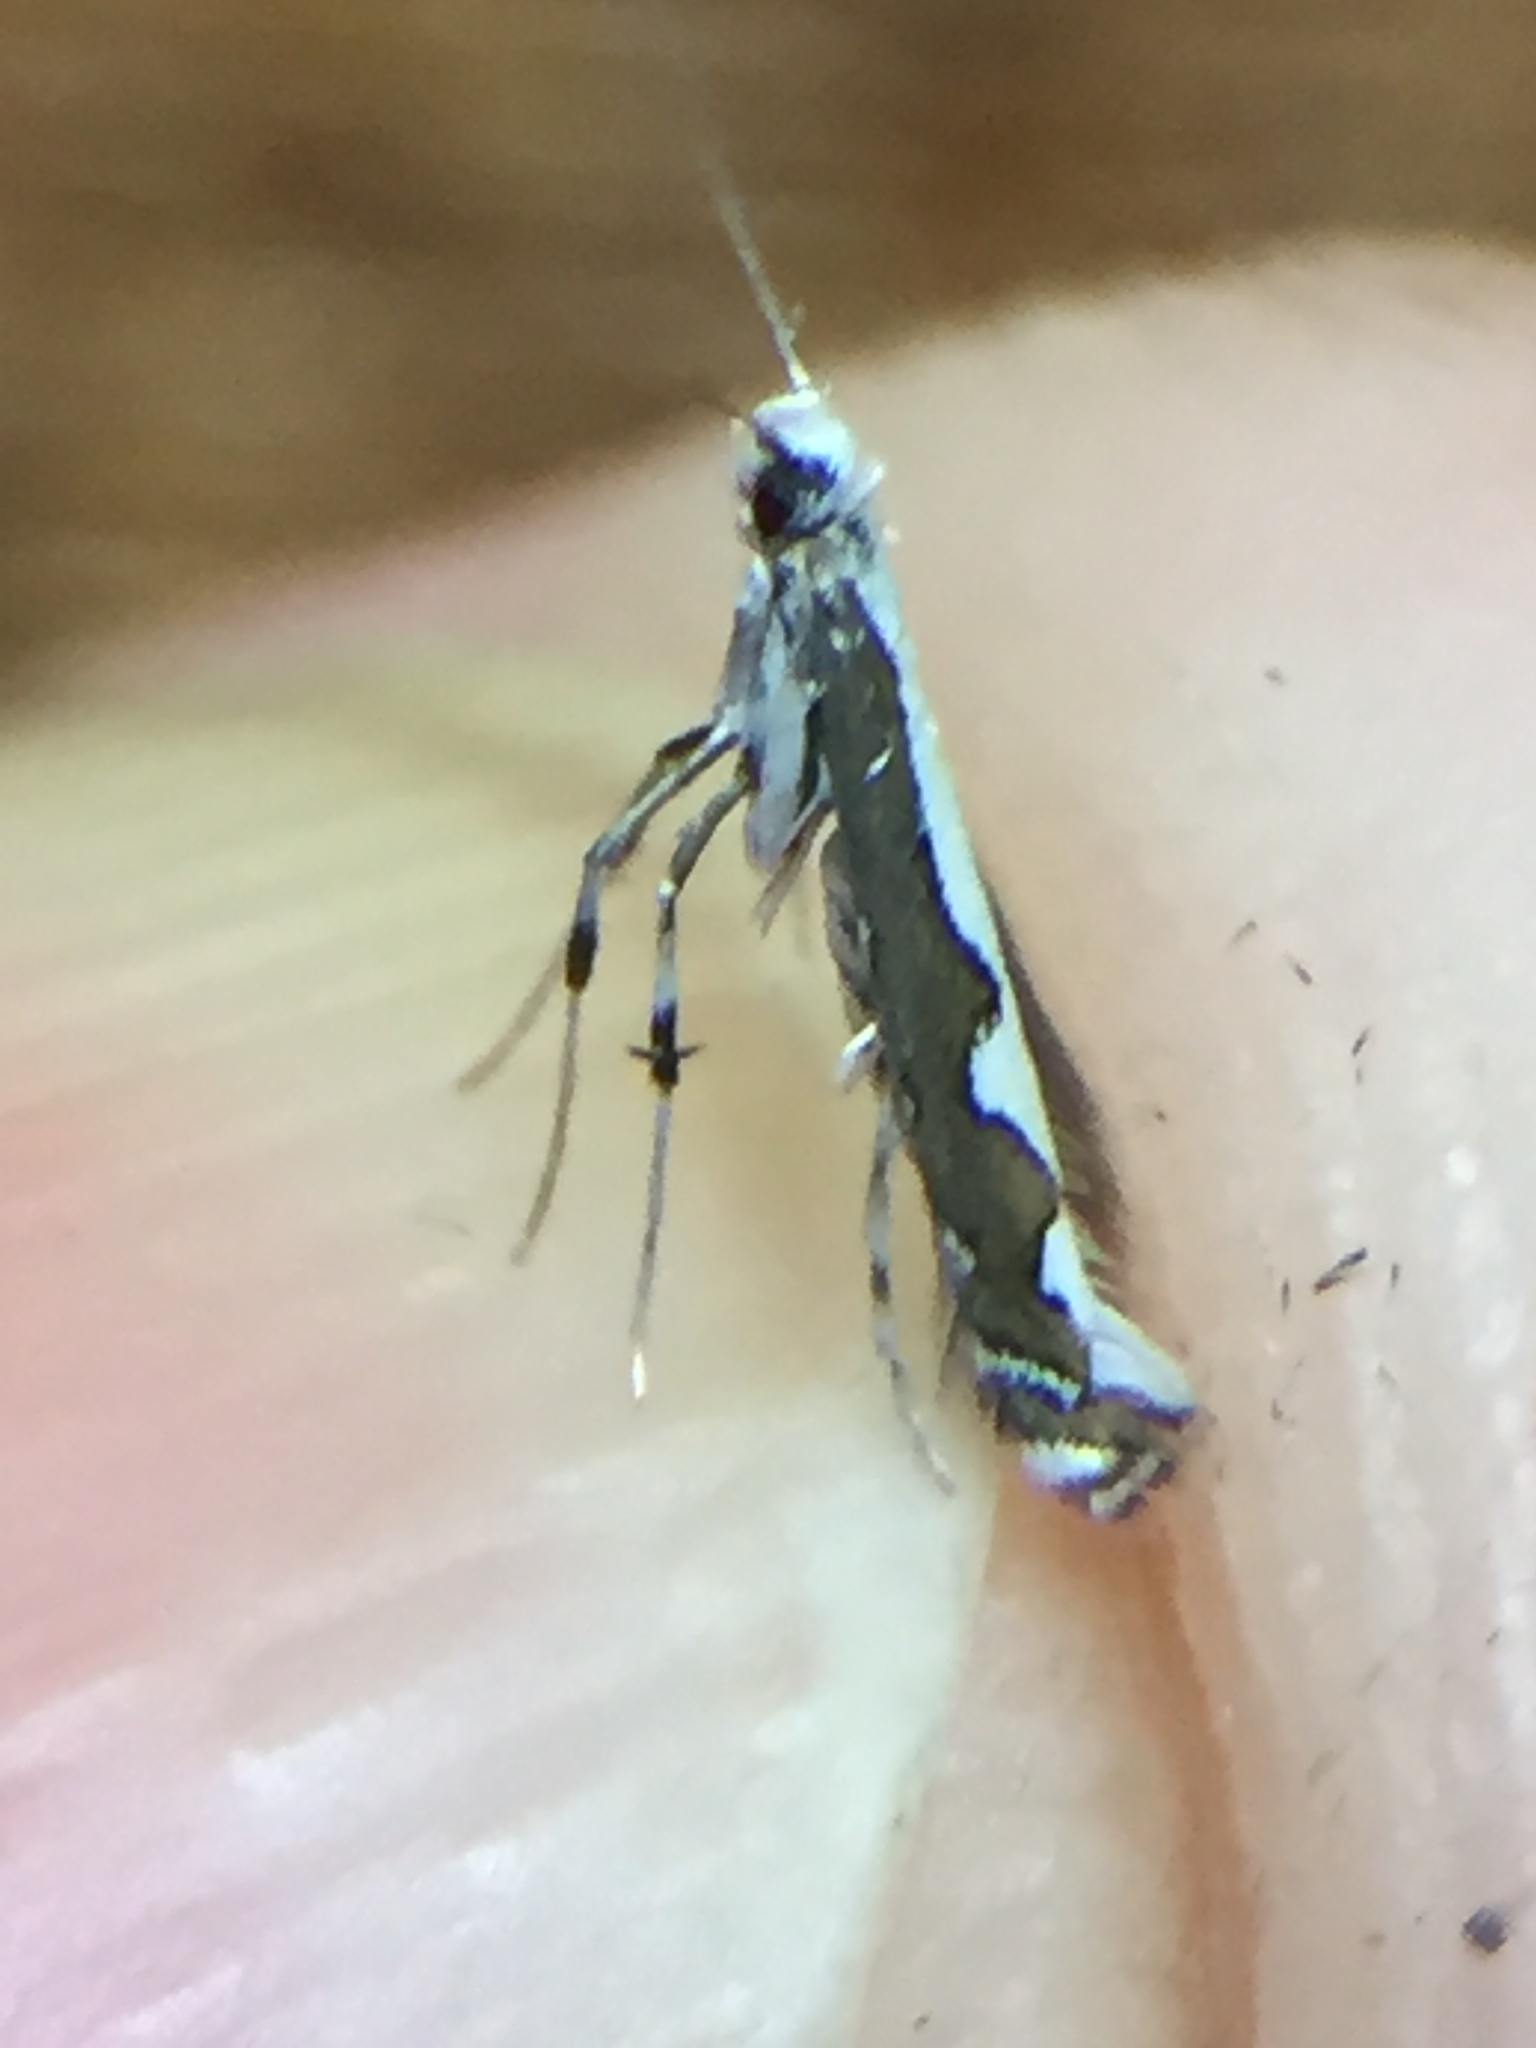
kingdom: Animalia
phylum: Arthropoda
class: Insecta
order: Lepidoptera
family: Gracillariidae
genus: Dialectica
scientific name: Dialectica scalariella
